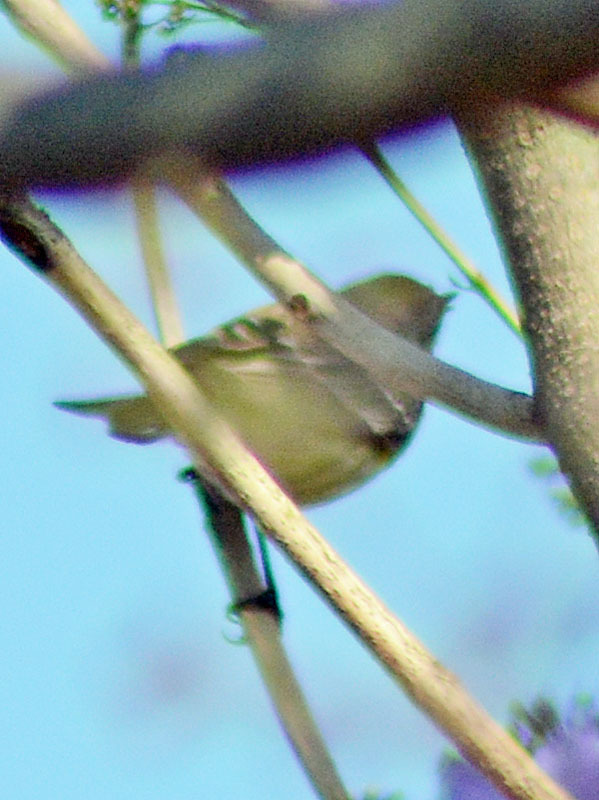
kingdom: Animalia
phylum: Chordata
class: Aves
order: Passeriformes
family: Regulidae
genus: Regulus
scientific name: Regulus calendula
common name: Ruby-crowned kinglet
